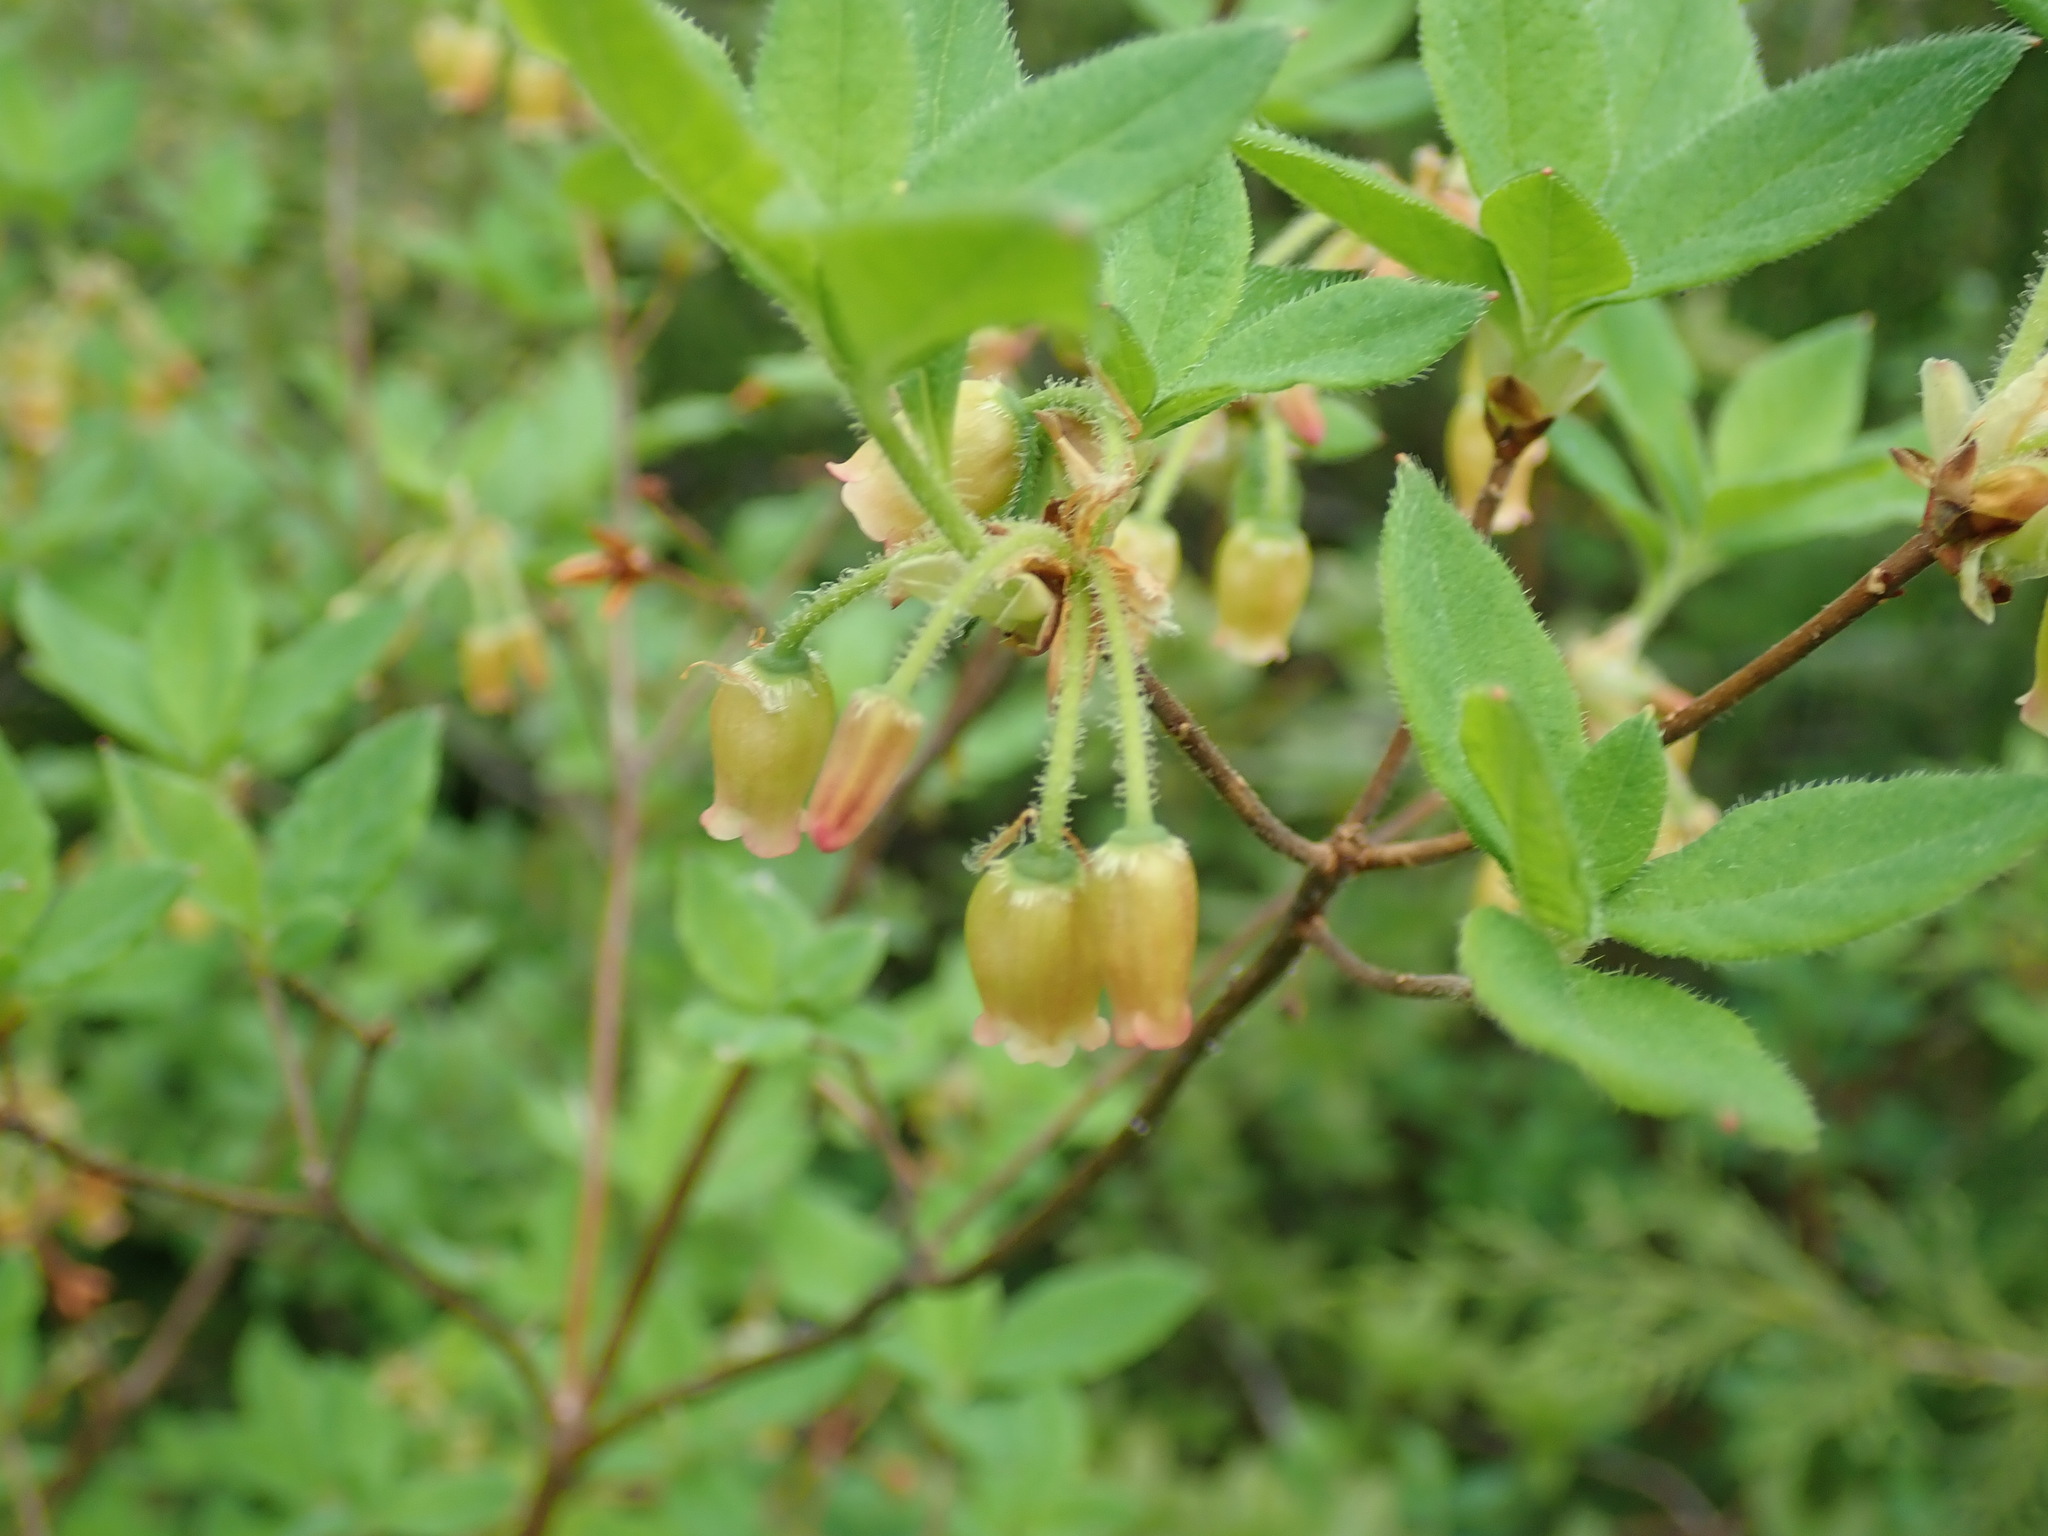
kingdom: Plantae
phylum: Tracheophyta
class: Magnoliopsida
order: Ericales
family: Ericaceae
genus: Rhododendron
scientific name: Rhododendron menziesii
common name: Pacific menziesia
